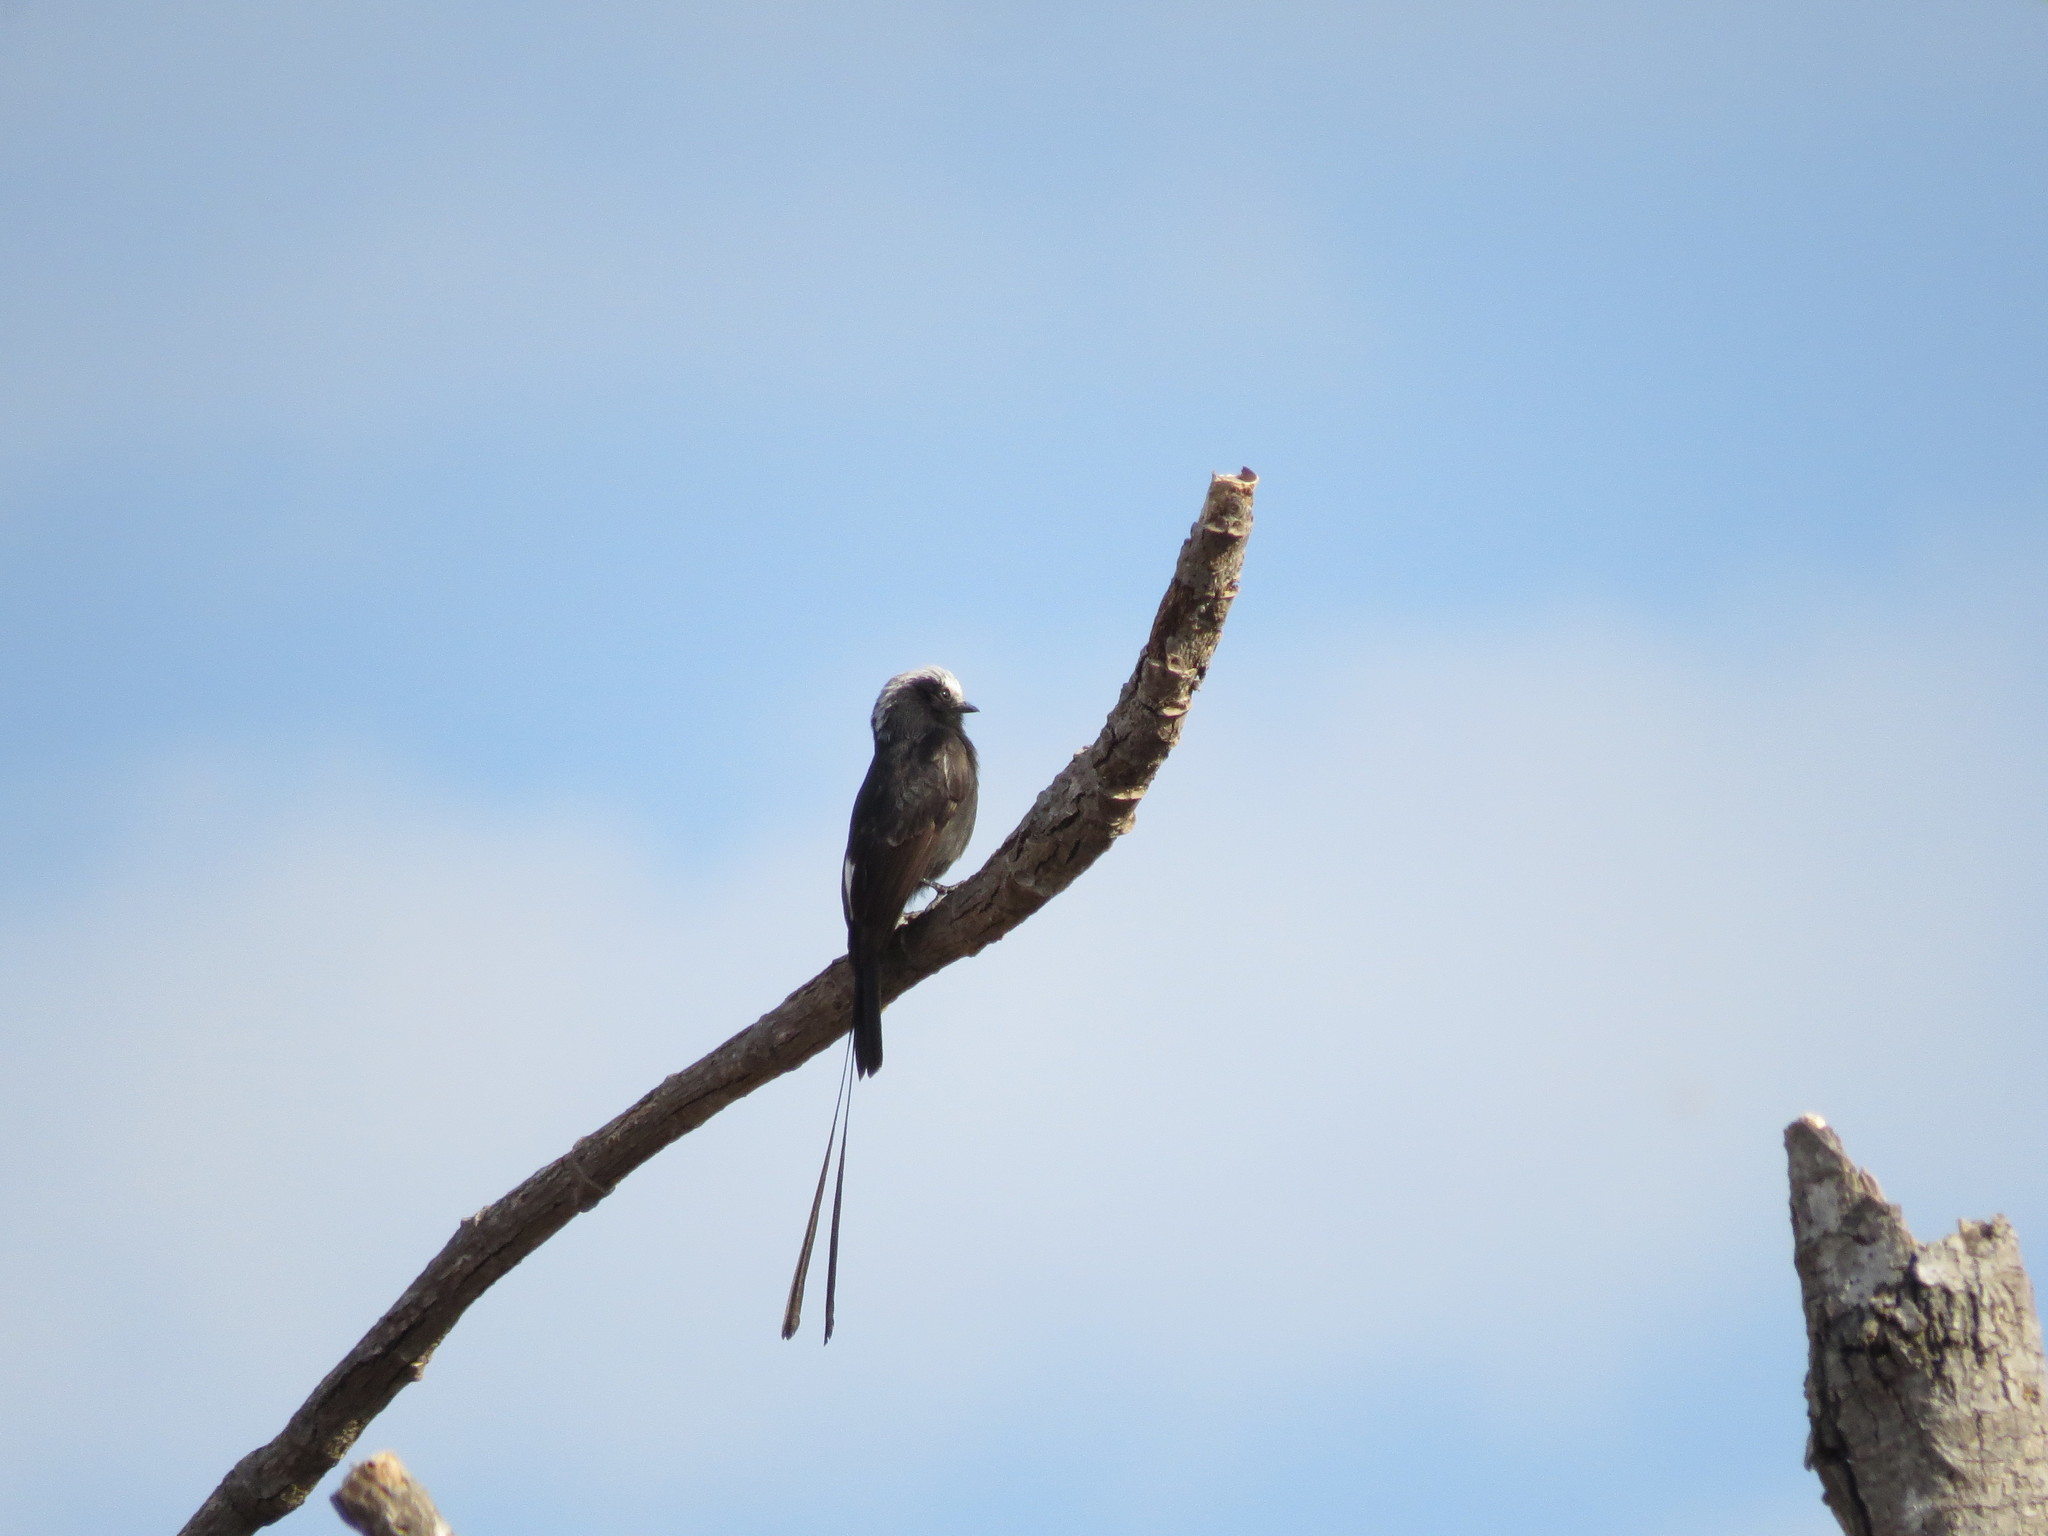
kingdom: Animalia
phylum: Chordata
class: Aves
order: Passeriformes
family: Tyrannidae
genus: Colonia
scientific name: Colonia colonus
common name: Long-tailed tyrant
